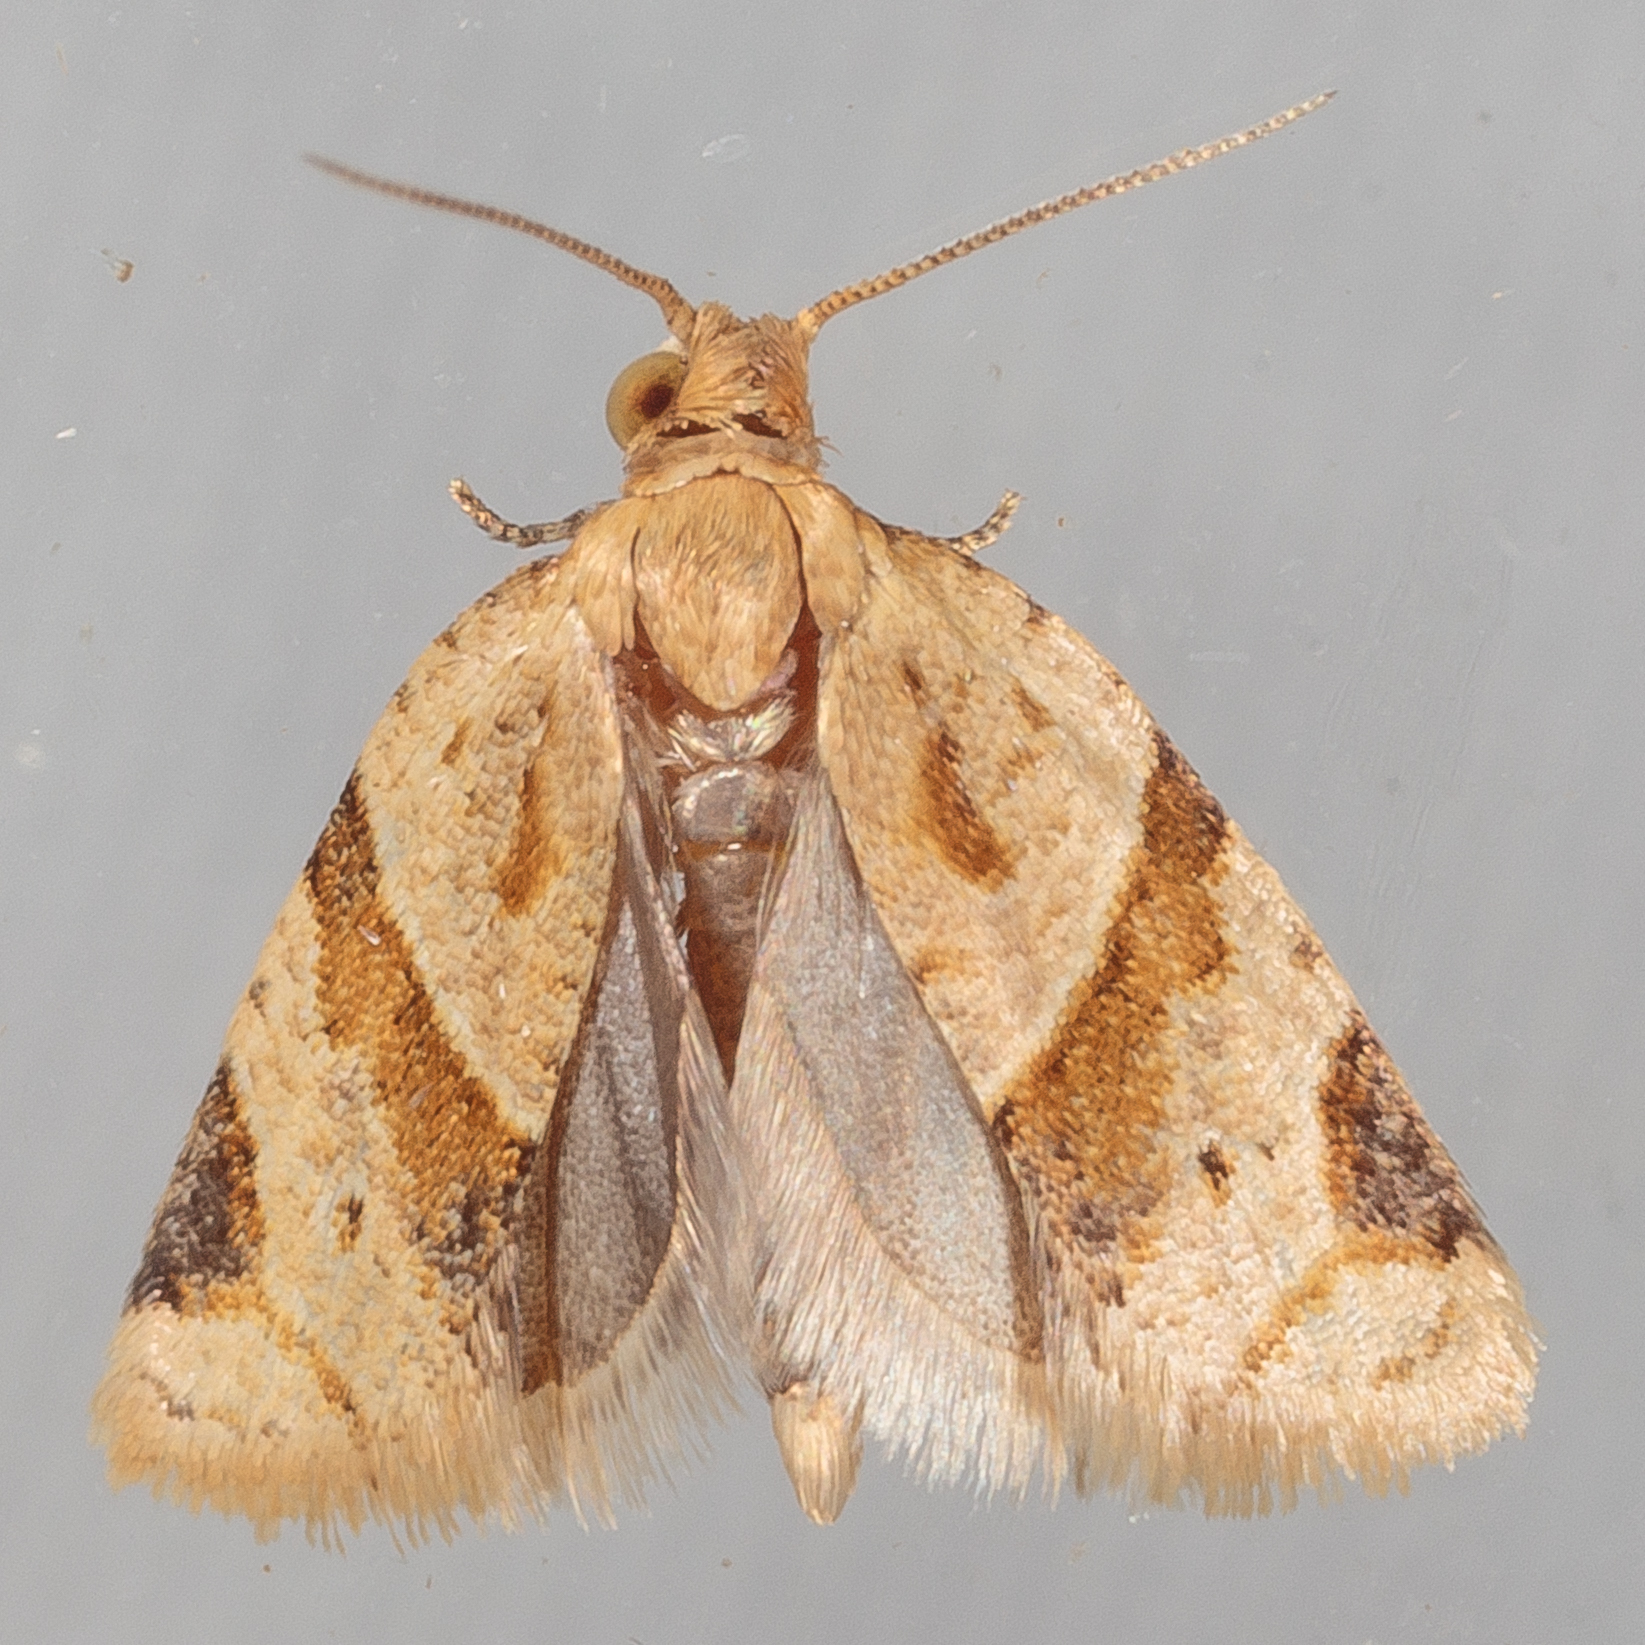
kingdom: Animalia
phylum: Arthropoda
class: Insecta
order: Lepidoptera
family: Tortricidae
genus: Clepsis
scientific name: Clepsis peritana
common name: Garden tortrix
